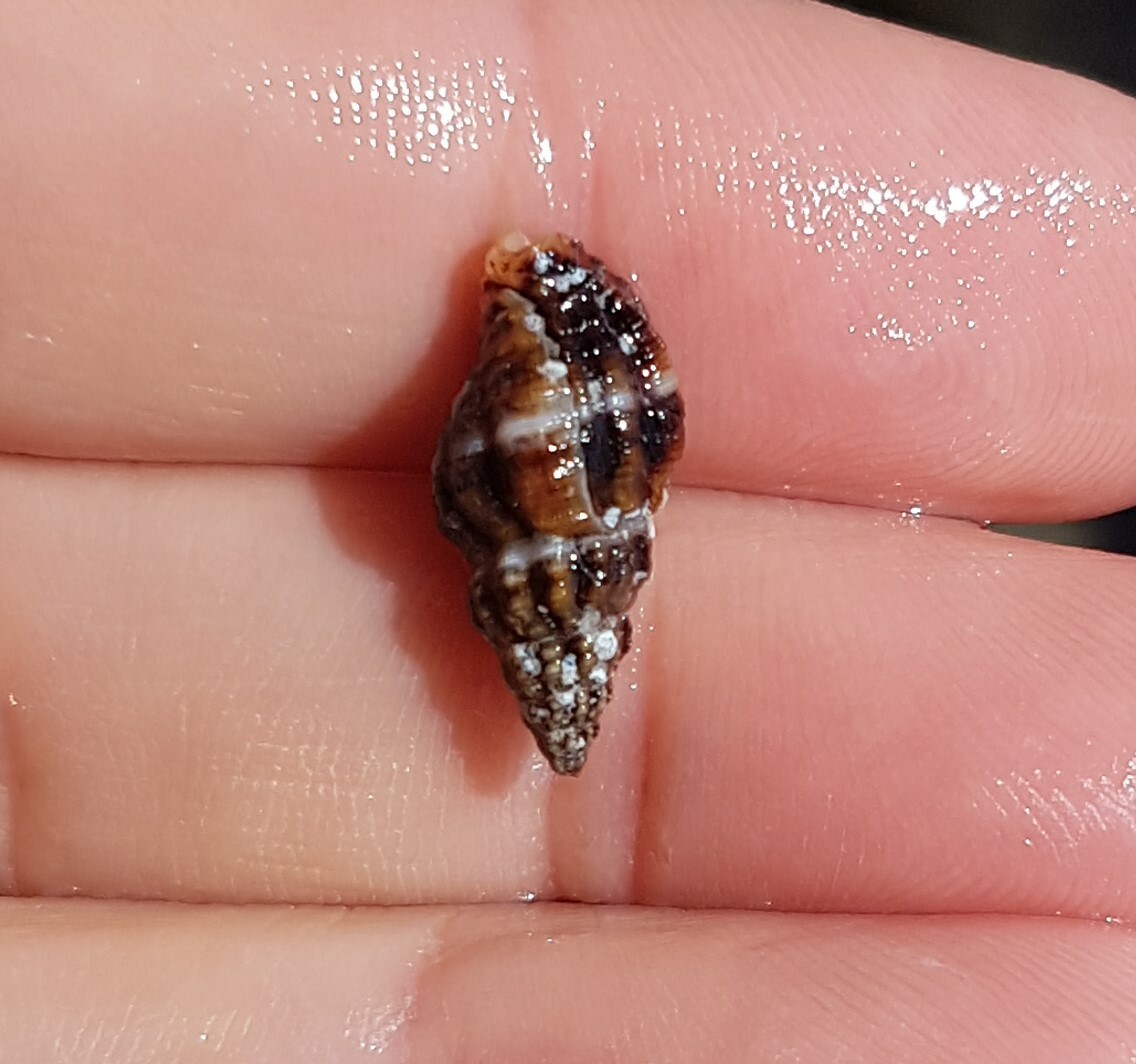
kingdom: Animalia
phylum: Mollusca
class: Gastropoda
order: Neogastropoda
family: Pisaniidae
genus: Aplus
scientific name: Aplus dorbignyi
